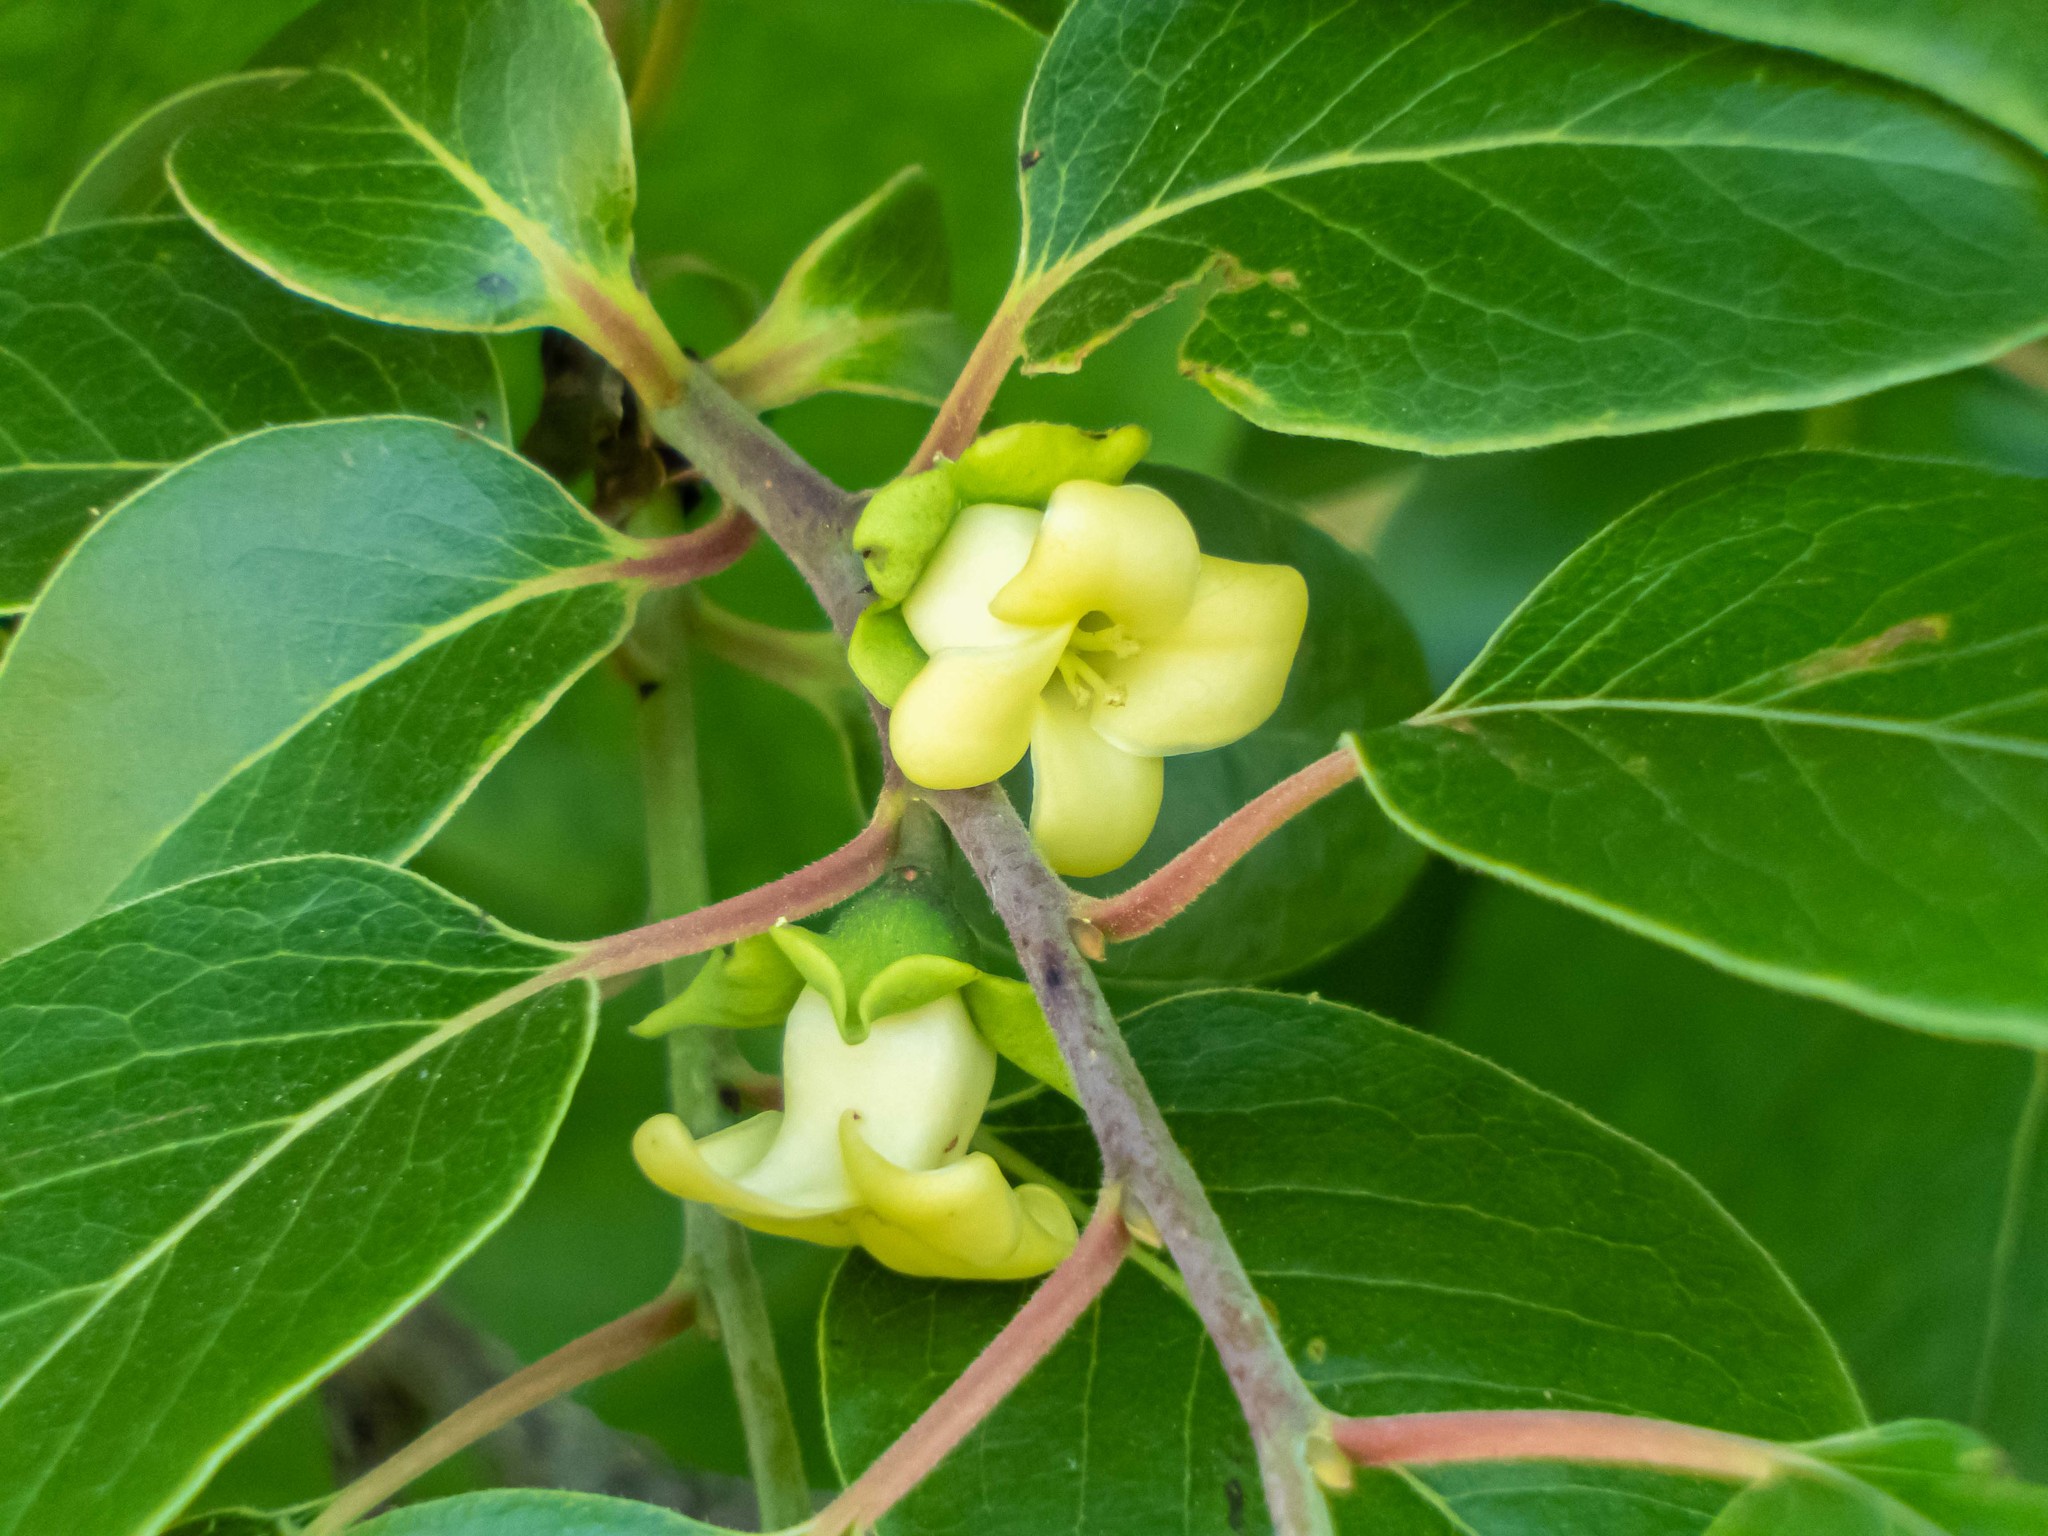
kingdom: Plantae
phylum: Tracheophyta
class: Magnoliopsida
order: Ericales
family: Ebenaceae
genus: Diospyros
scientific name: Diospyros virginiana
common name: Persimmon
